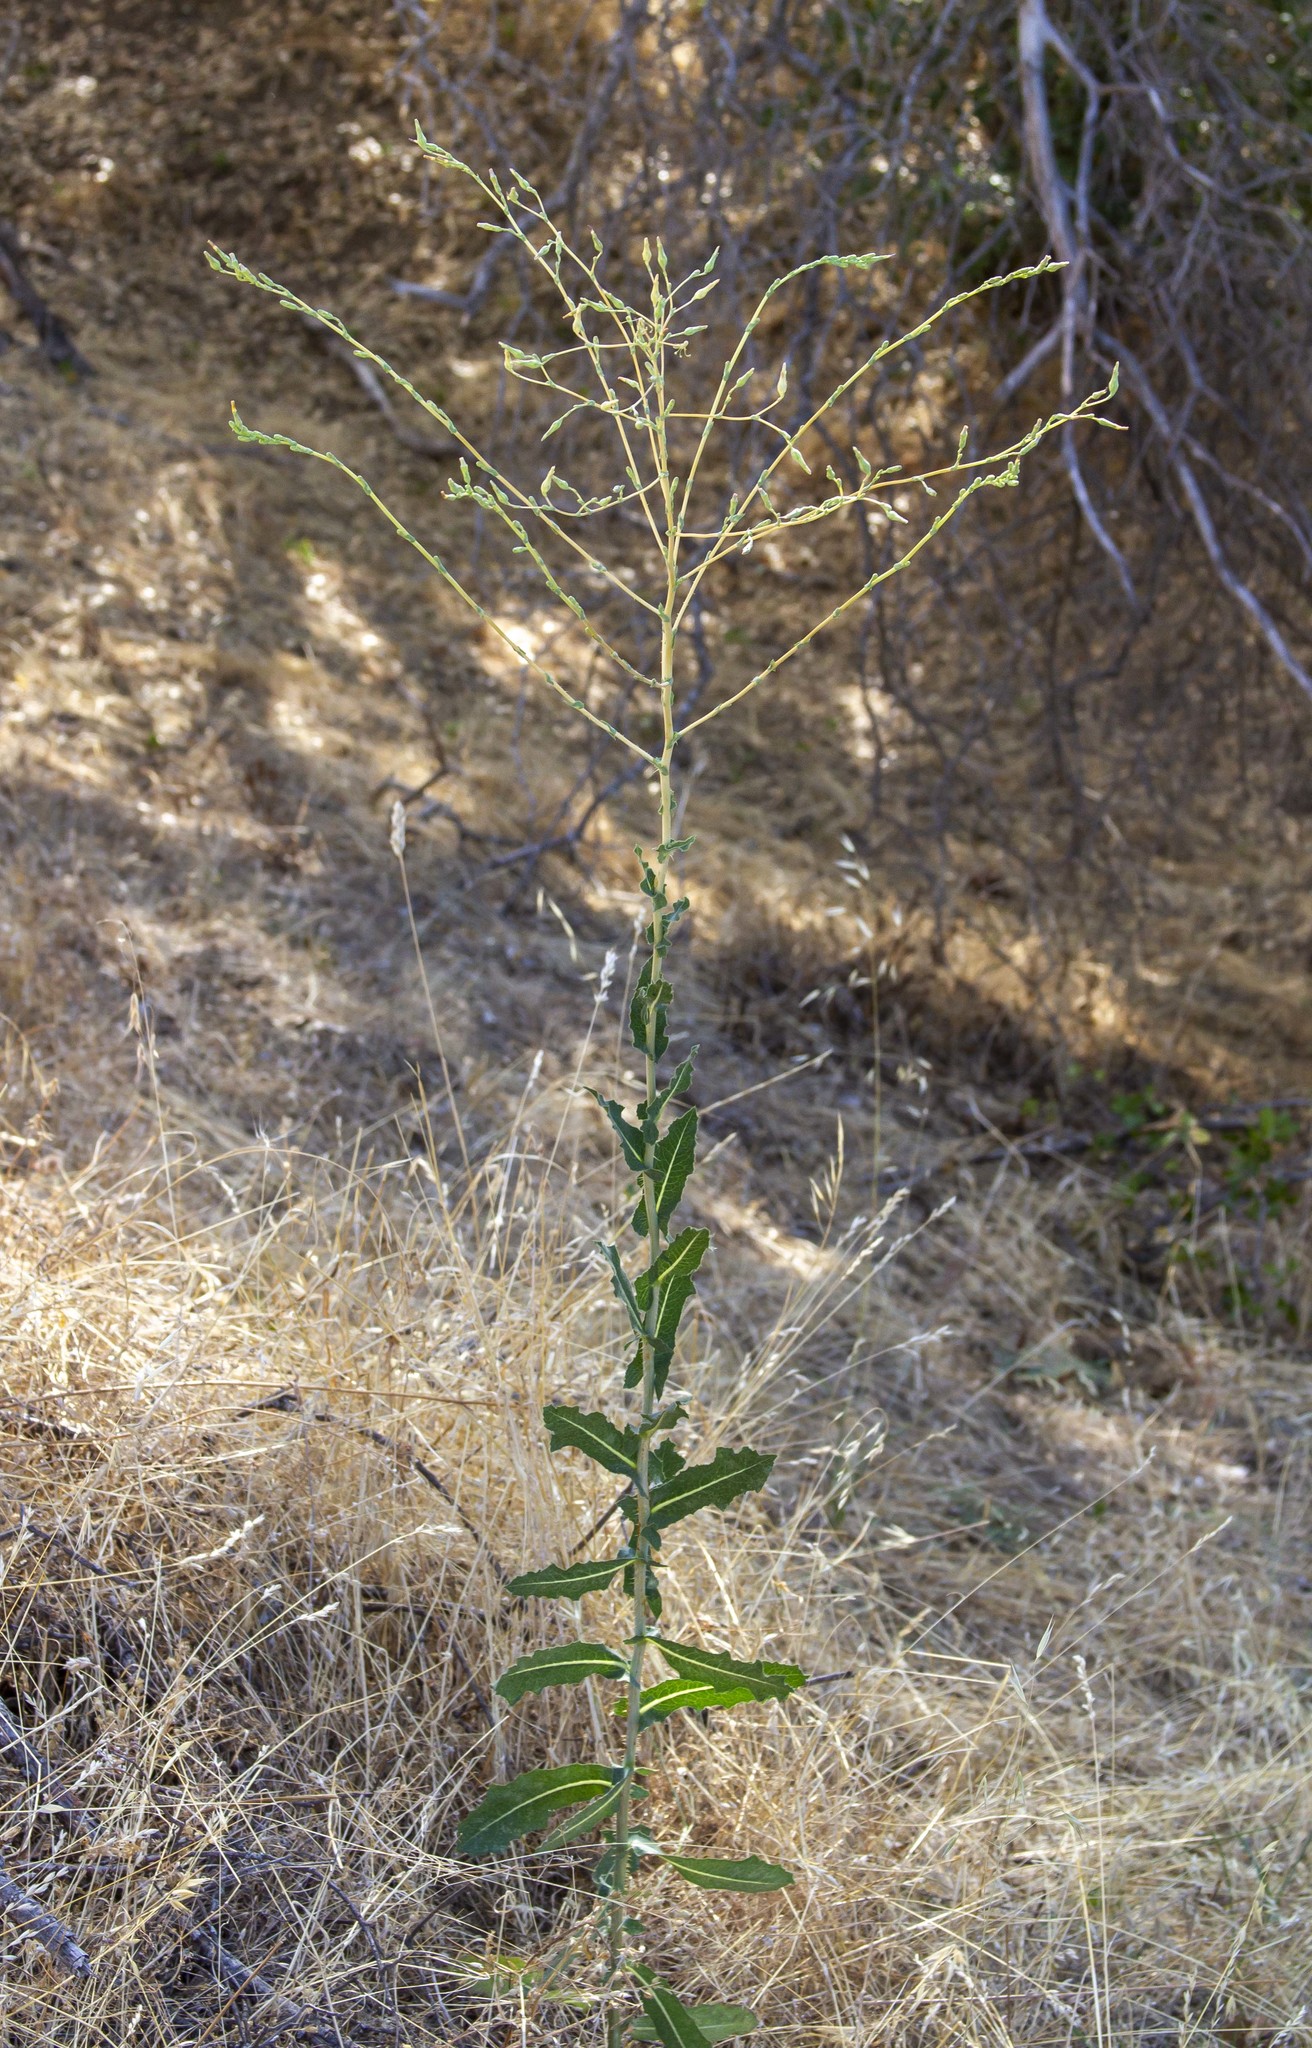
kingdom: Plantae
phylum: Tracheophyta
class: Magnoliopsida
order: Asterales
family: Asteraceae
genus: Lactuca
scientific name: Lactuca serriola
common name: Prickly lettuce
